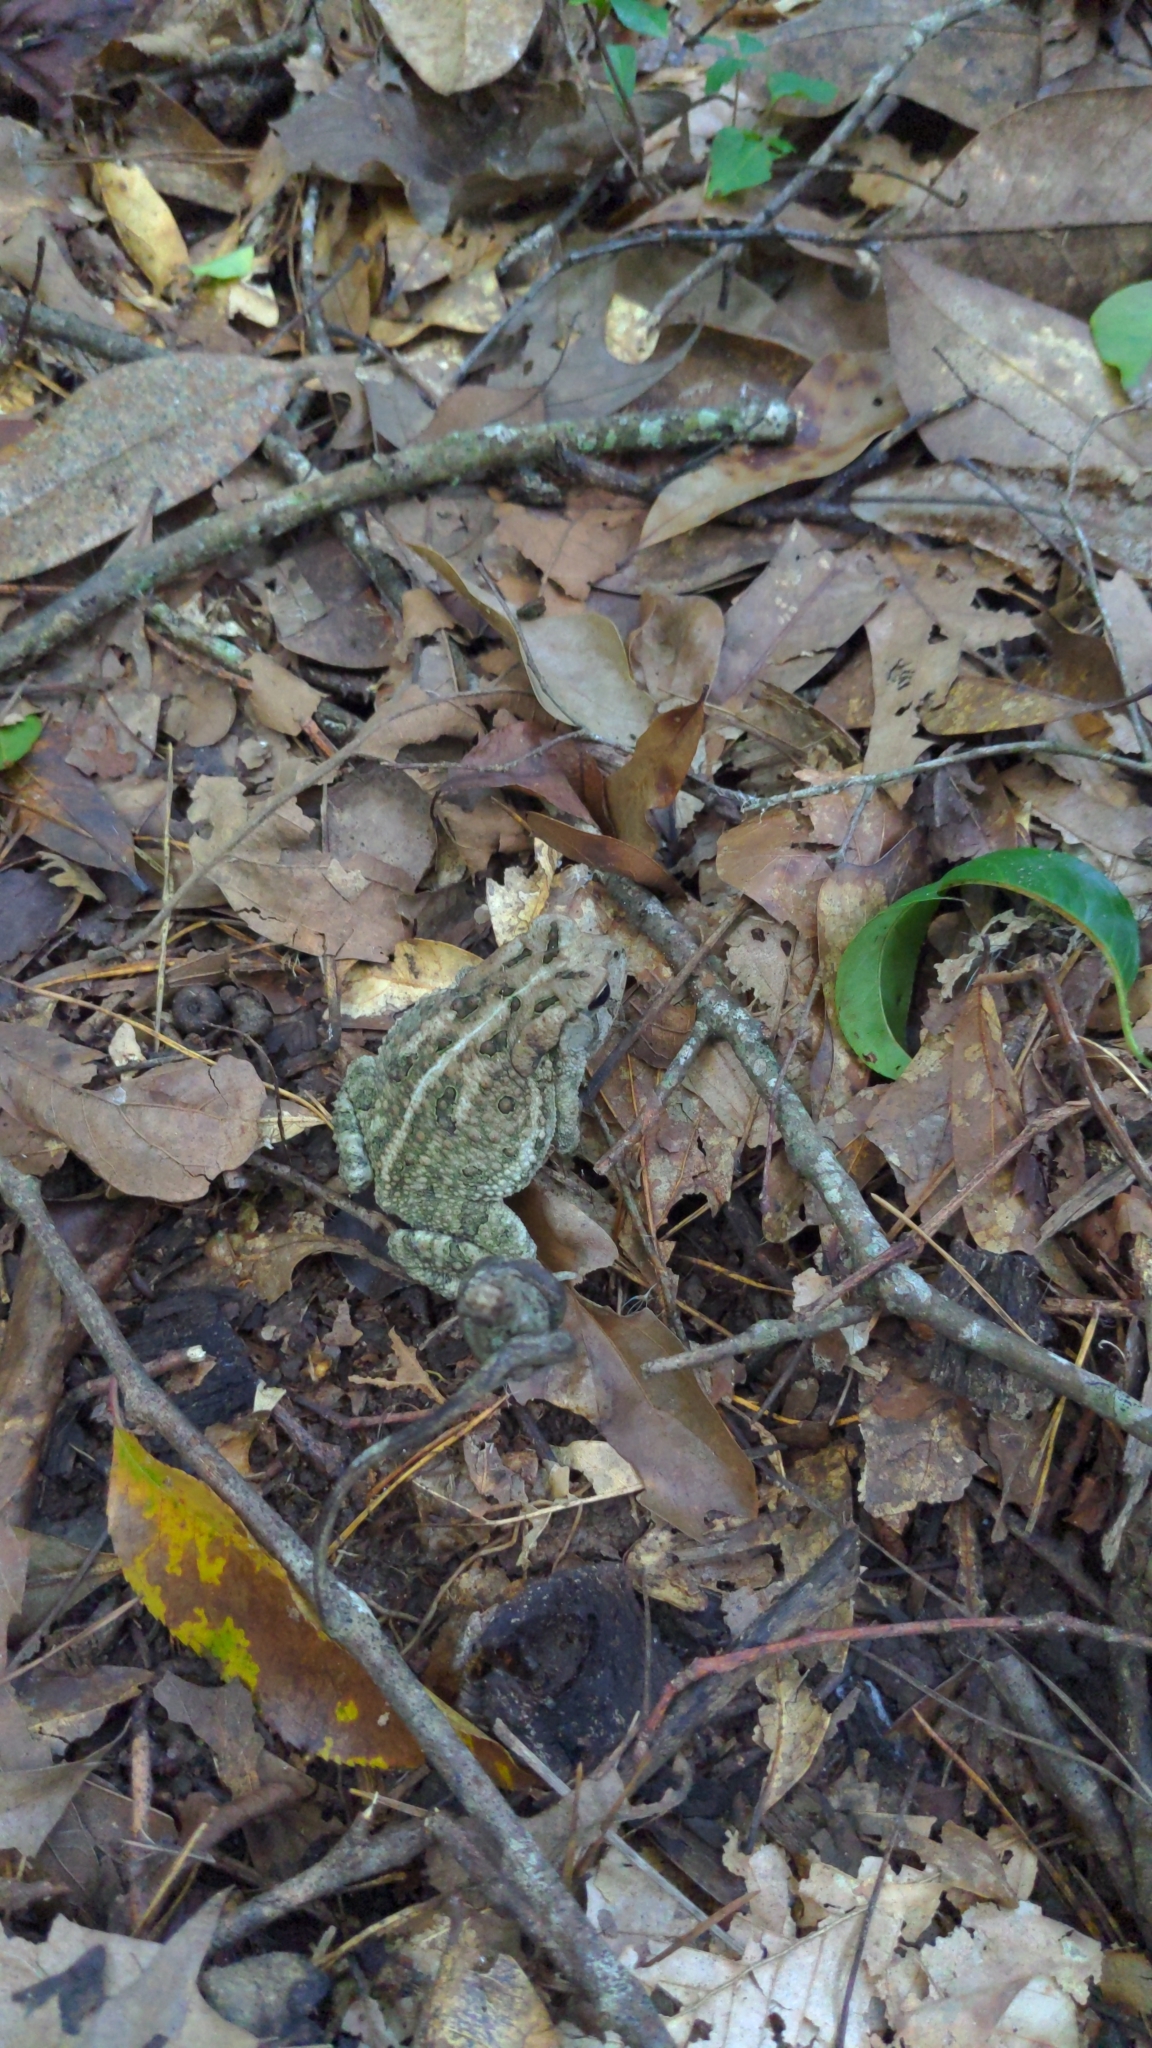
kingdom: Animalia
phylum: Chordata
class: Amphibia
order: Anura
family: Bufonidae
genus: Anaxyrus
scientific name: Anaxyrus fowleri
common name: Fowler's toad
